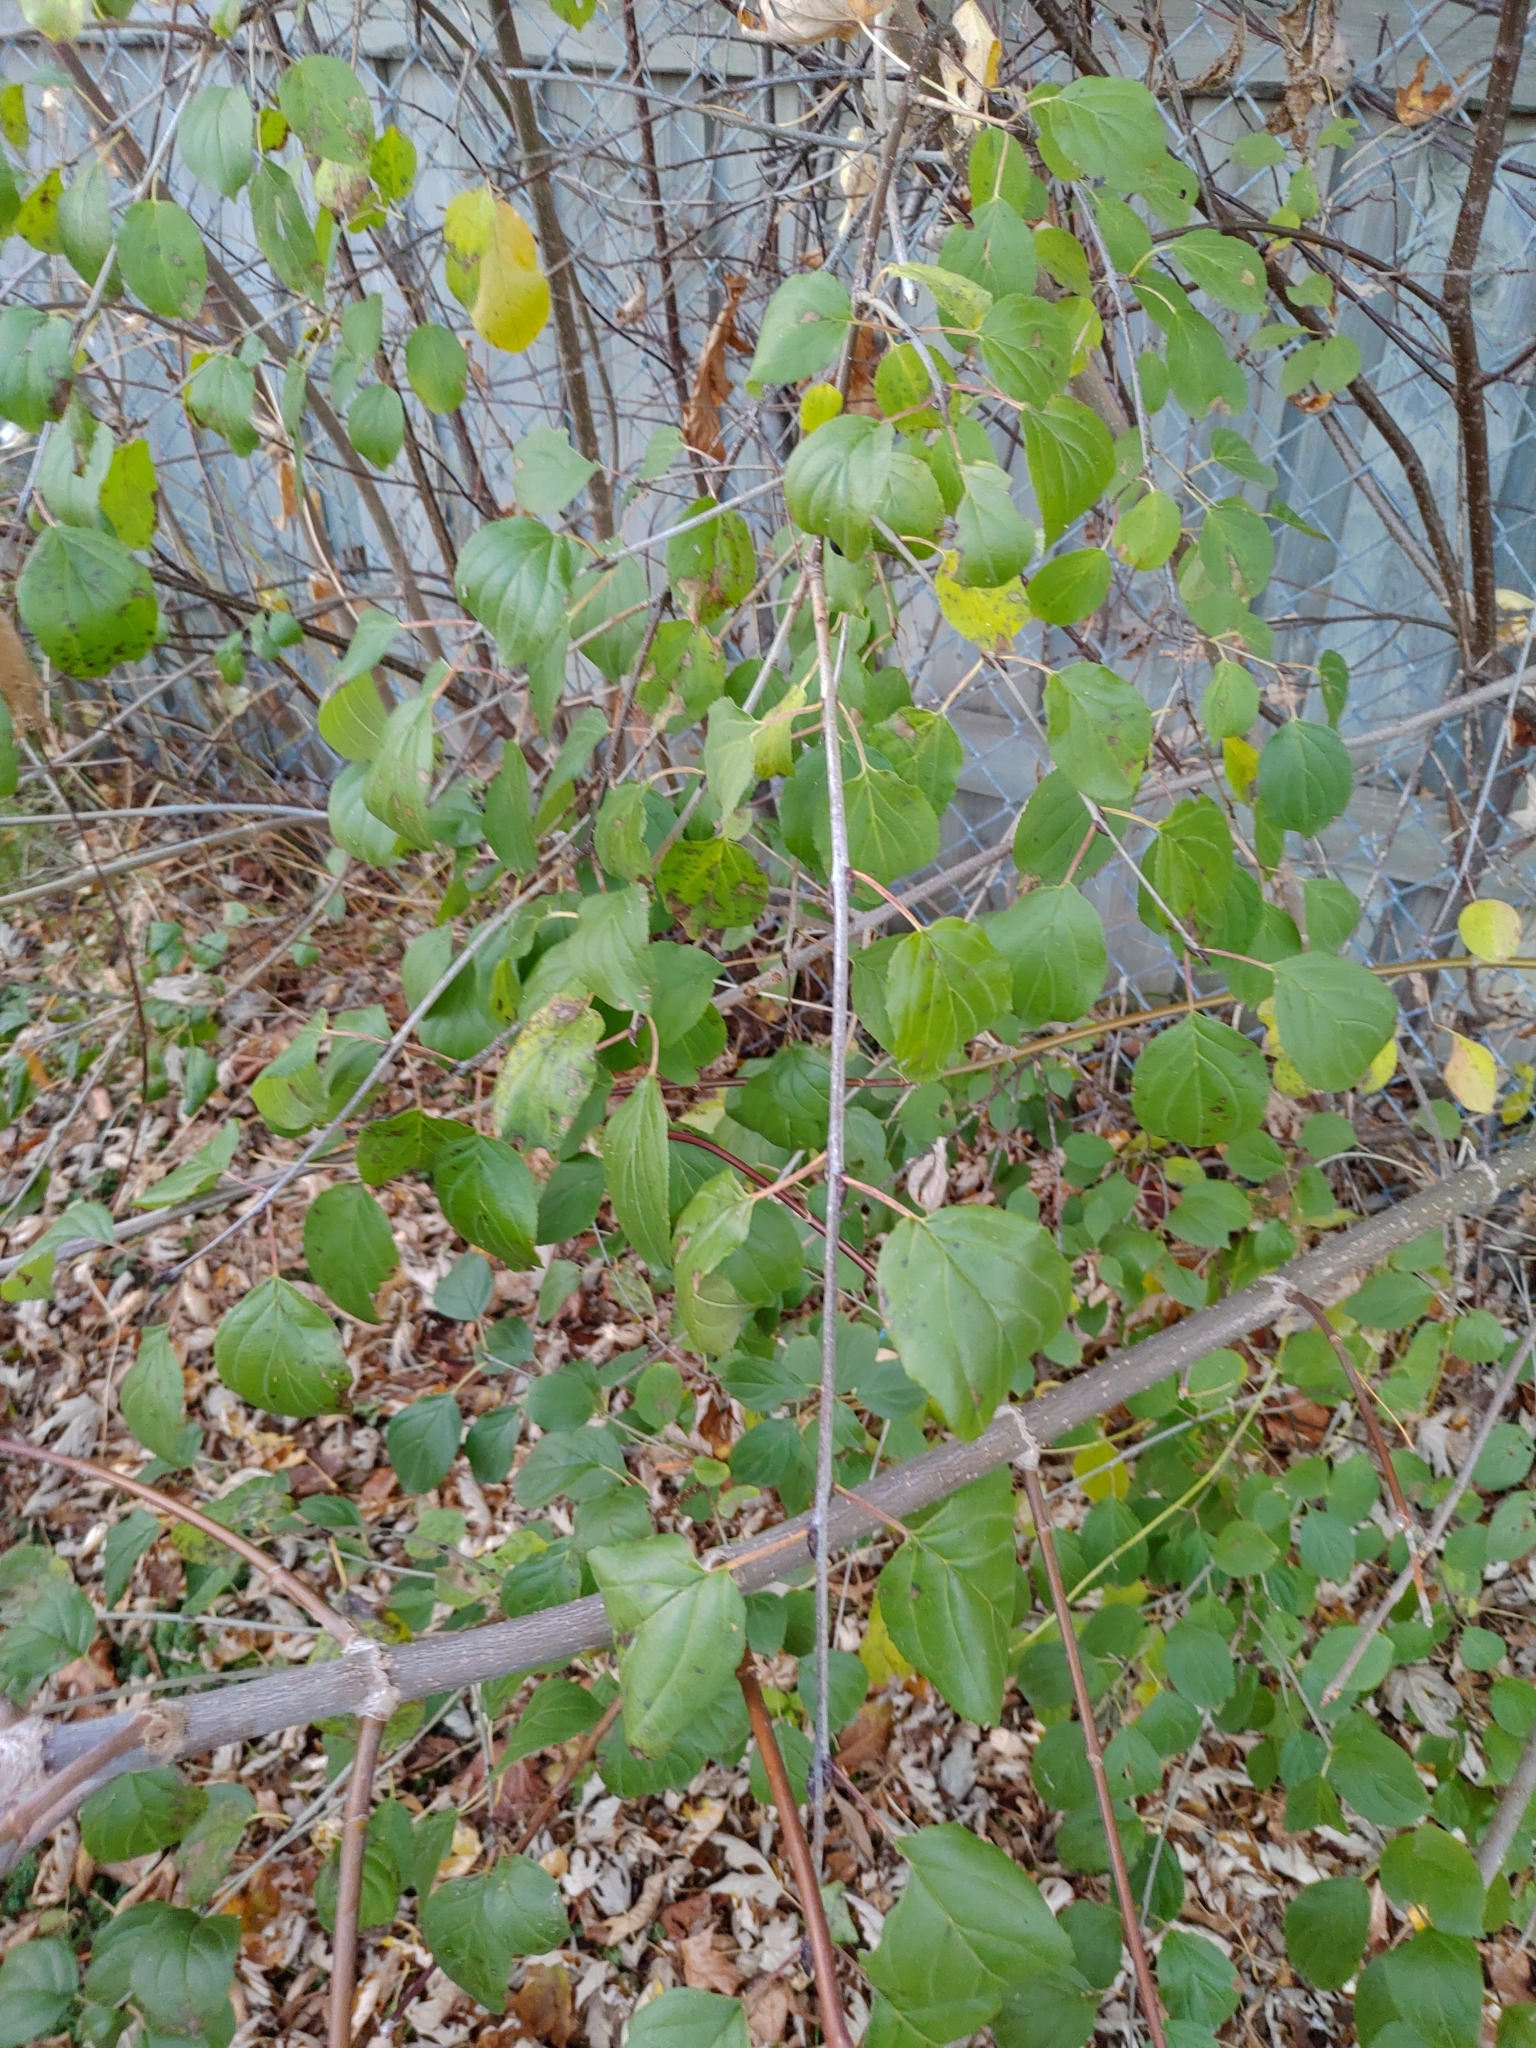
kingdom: Plantae
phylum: Tracheophyta
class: Magnoliopsida
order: Rosales
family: Rhamnaceae
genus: Rhamnus
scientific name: Rhamnus cathartica
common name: Common buckthorn
